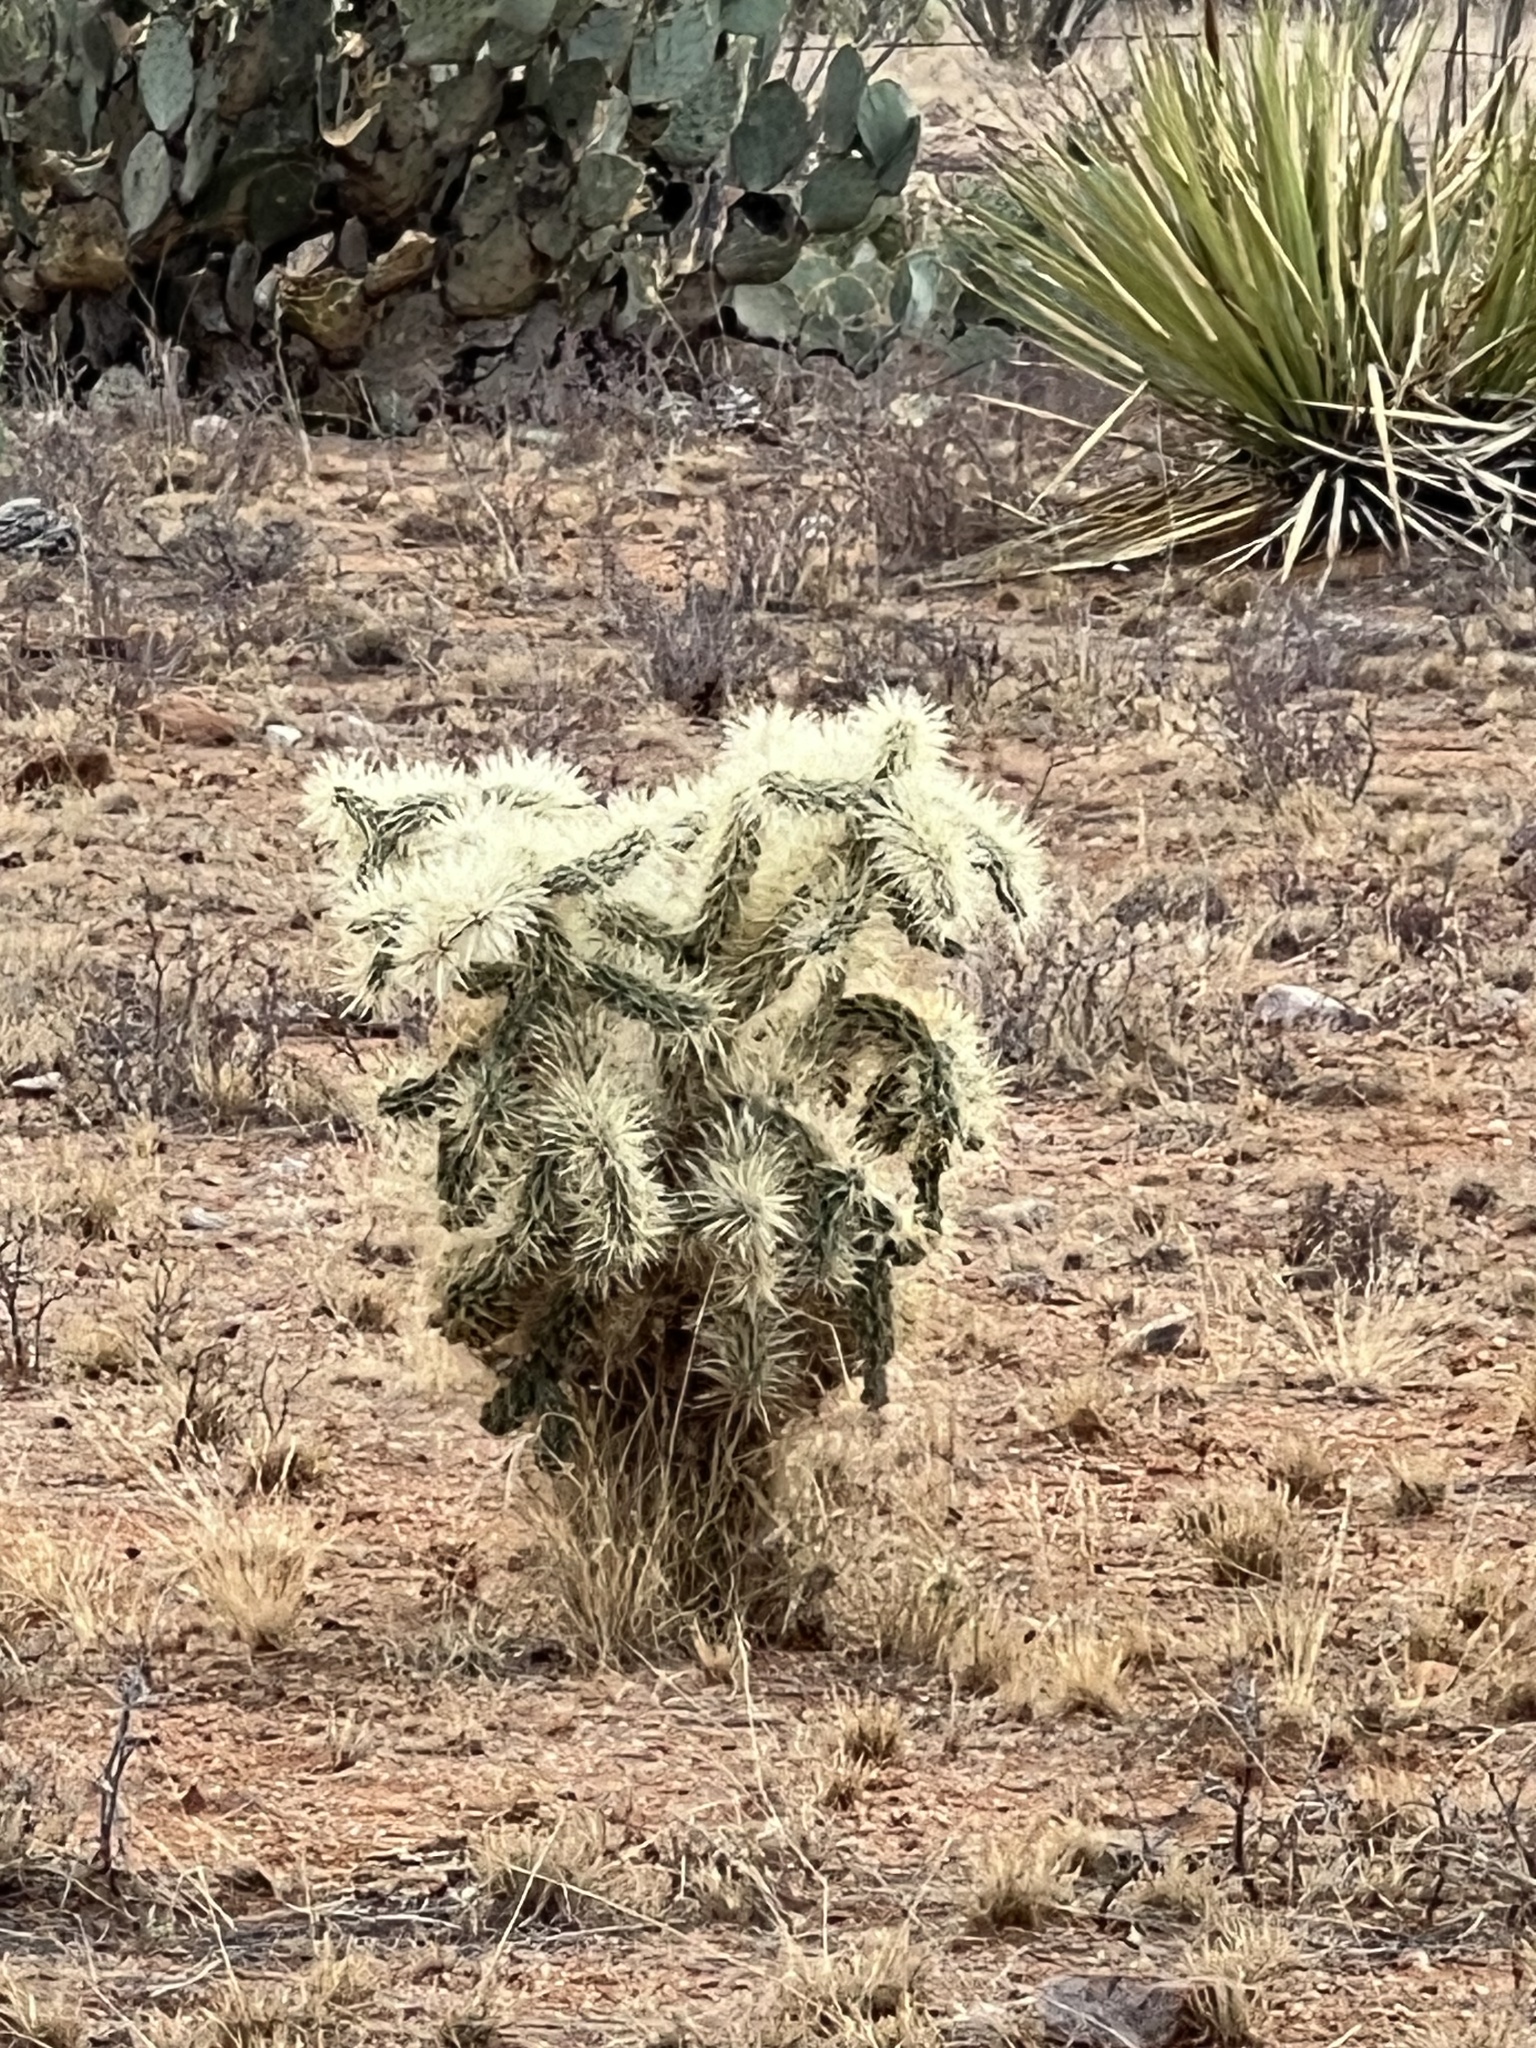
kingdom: Plantae
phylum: Tracheophyta
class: Magnoliopsida
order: Caryophyllales
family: Cactaceae
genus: Cylindropuntia
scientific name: Cylindropuntia fulgida
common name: Jumping cholla
